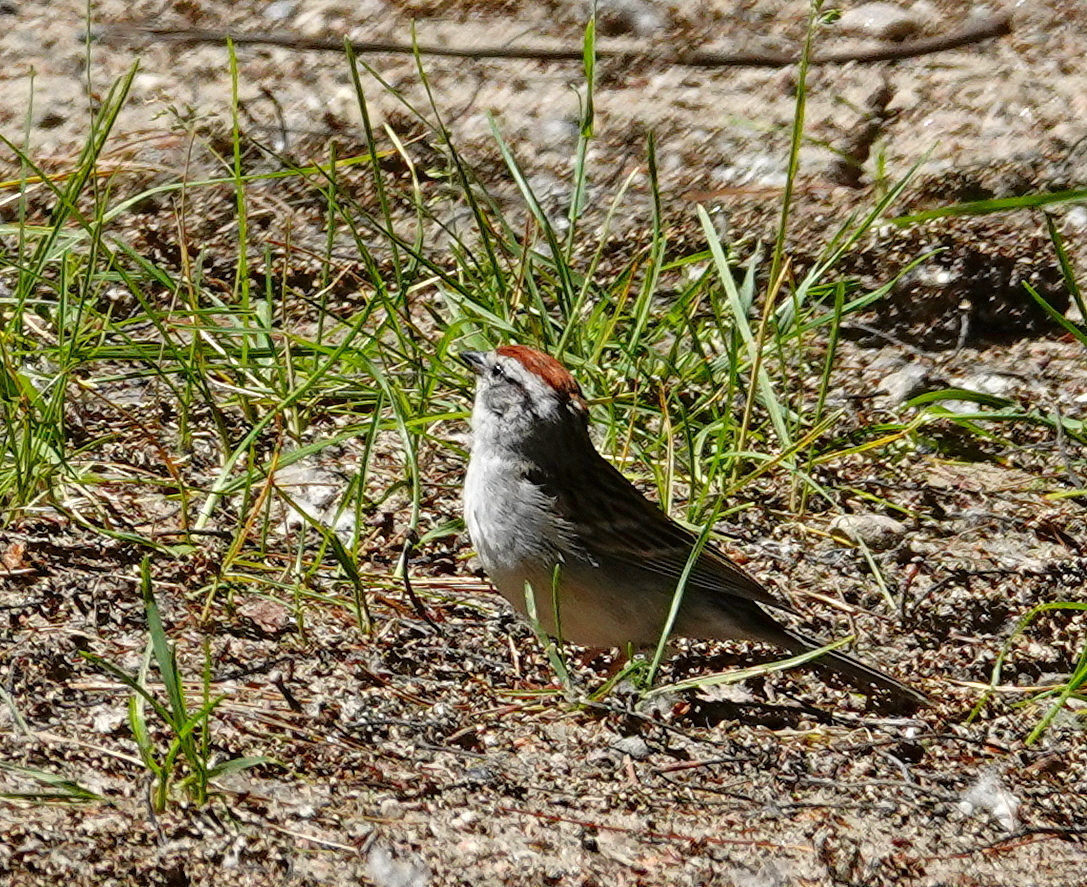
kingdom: Animalia
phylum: Chordata
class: Aves
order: Passeriformes
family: Passerellidae
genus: Spizella
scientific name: Spizella passerina
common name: Chipping sparrow
